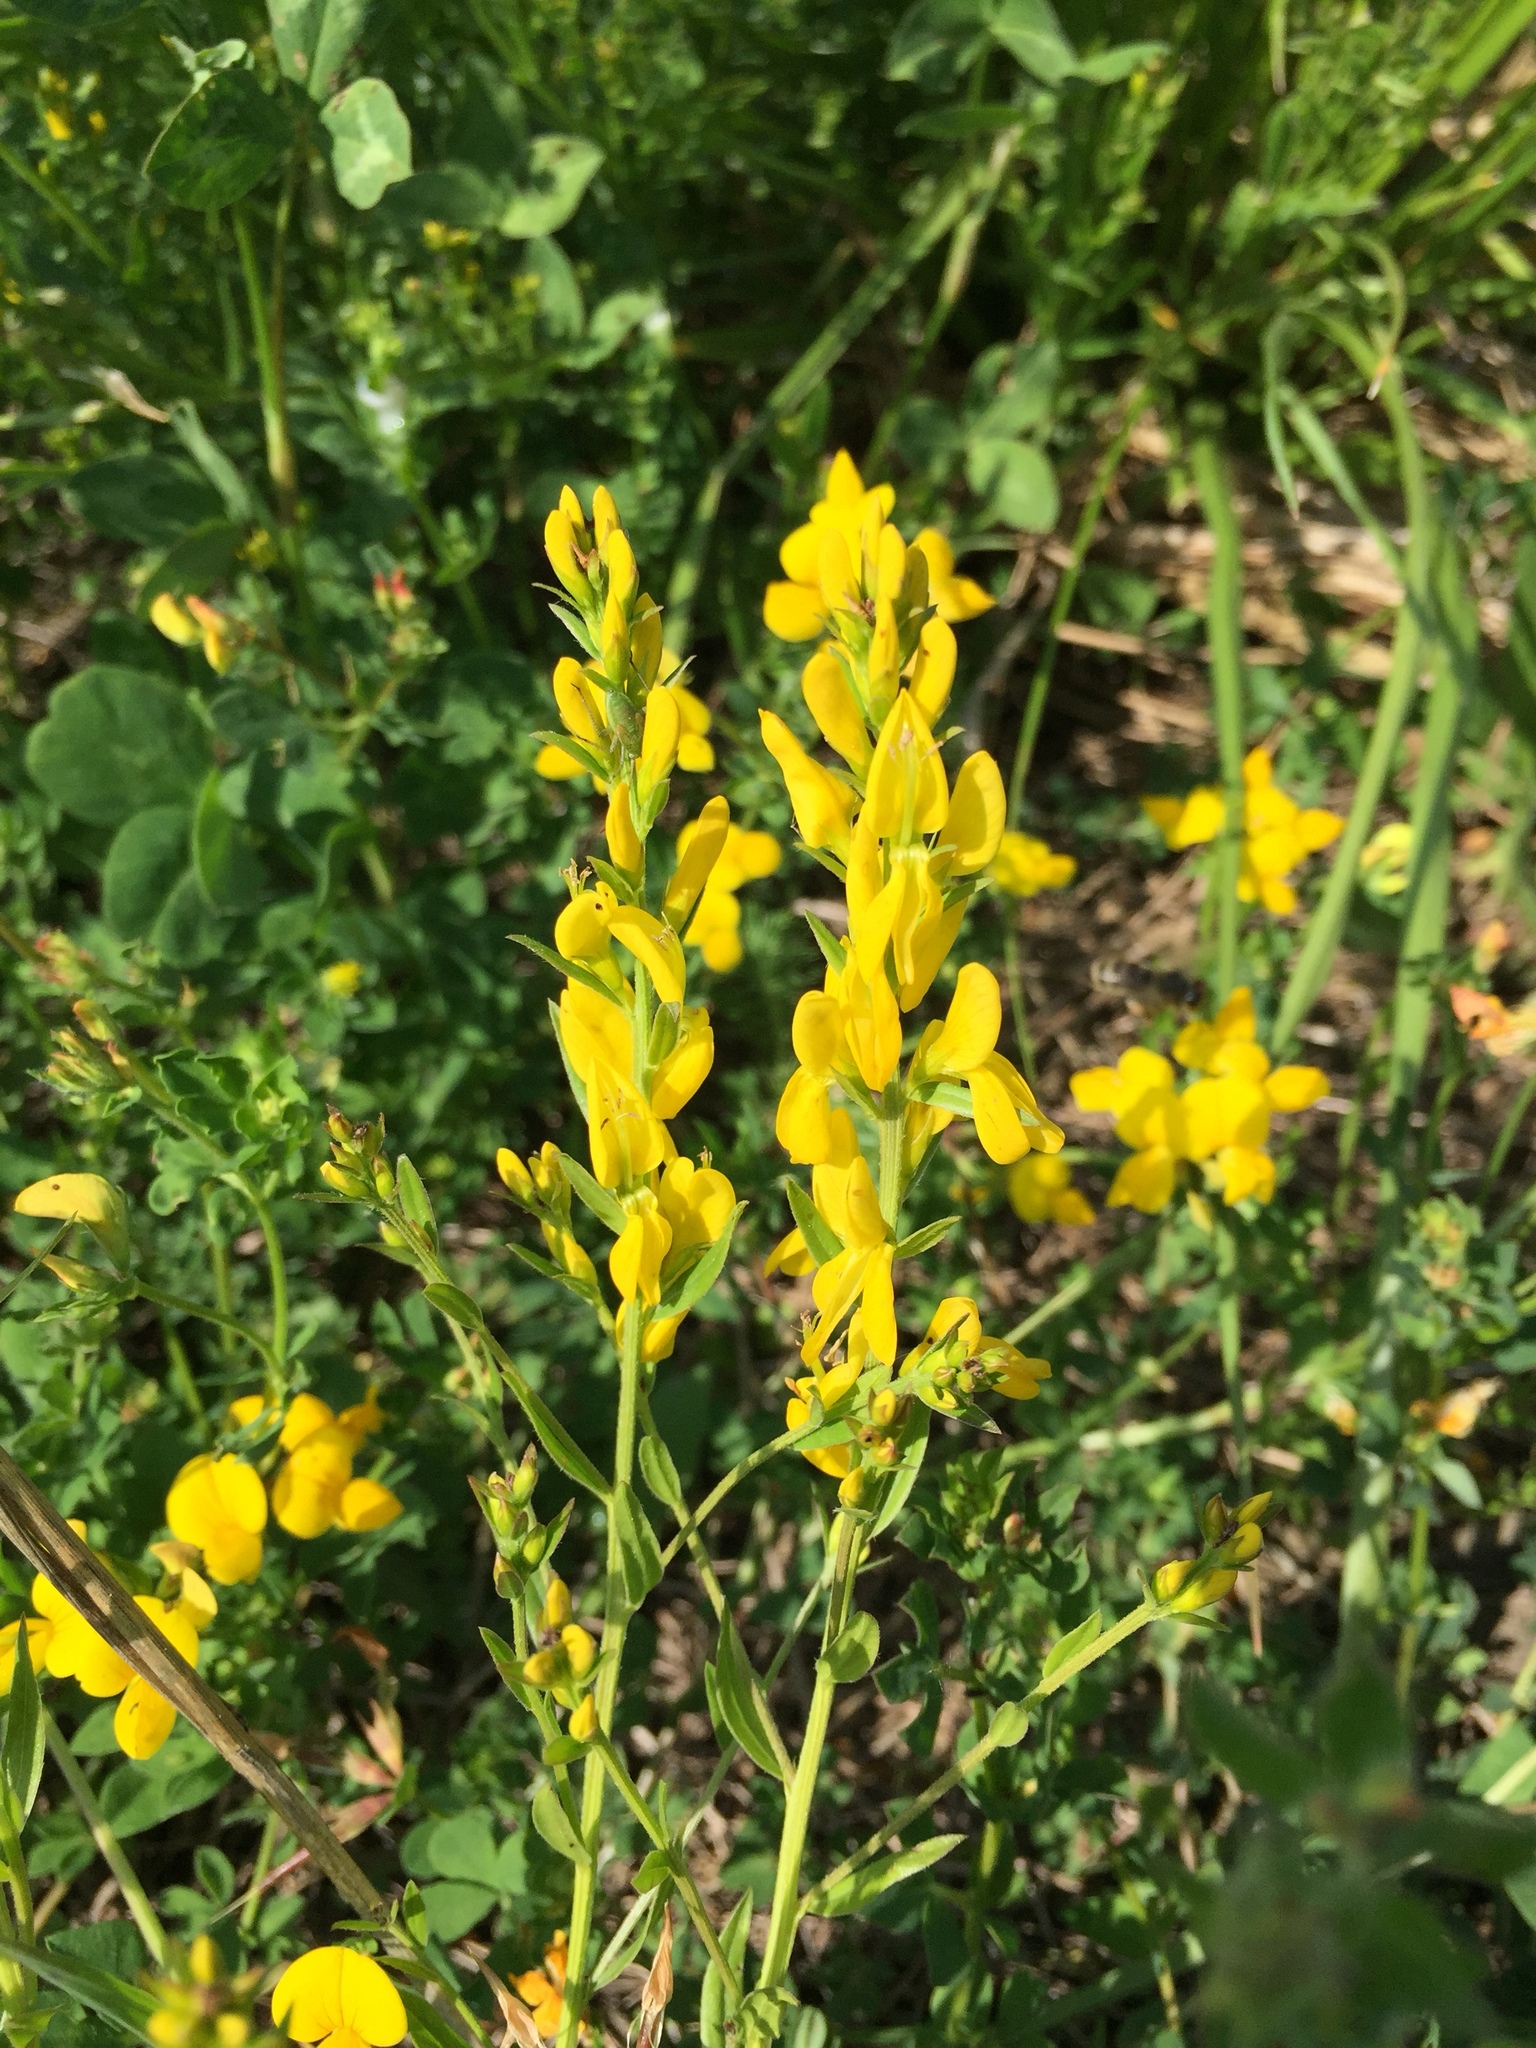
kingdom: Plantae
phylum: Tracheophyta
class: Magnoliopsida
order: Fabales
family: Fabaceae
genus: Genista
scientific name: Genista tinctoria
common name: Dyer's greenweed
